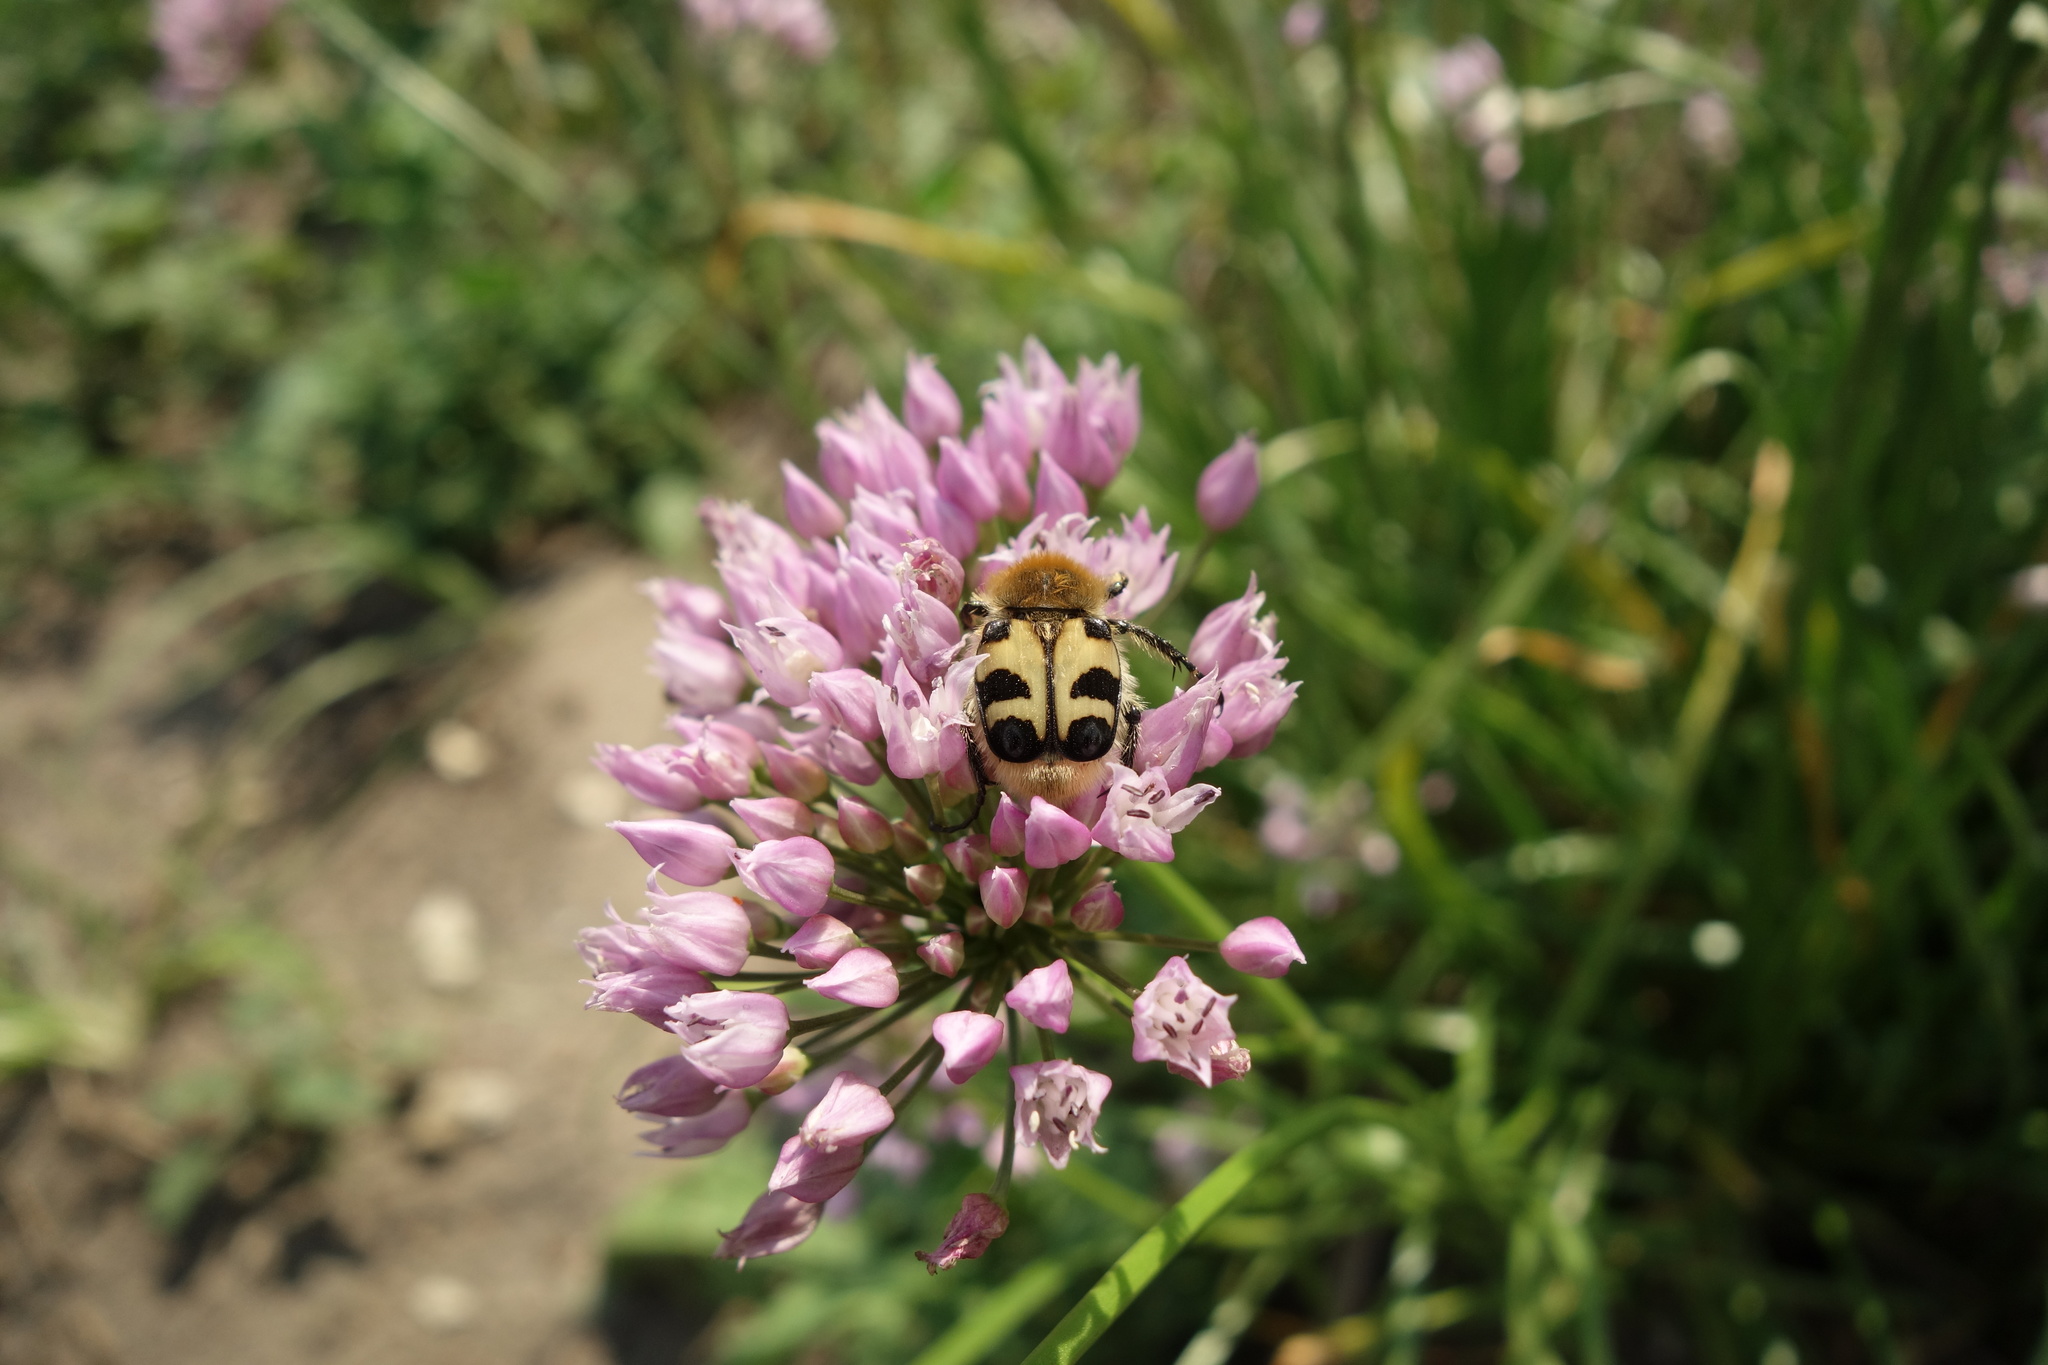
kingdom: Animalia
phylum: Arthropoda
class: Insecta
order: Coleoptera
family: Scarabaeidae
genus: Trichius
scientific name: Trichius fasciatus
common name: Bee beetle
